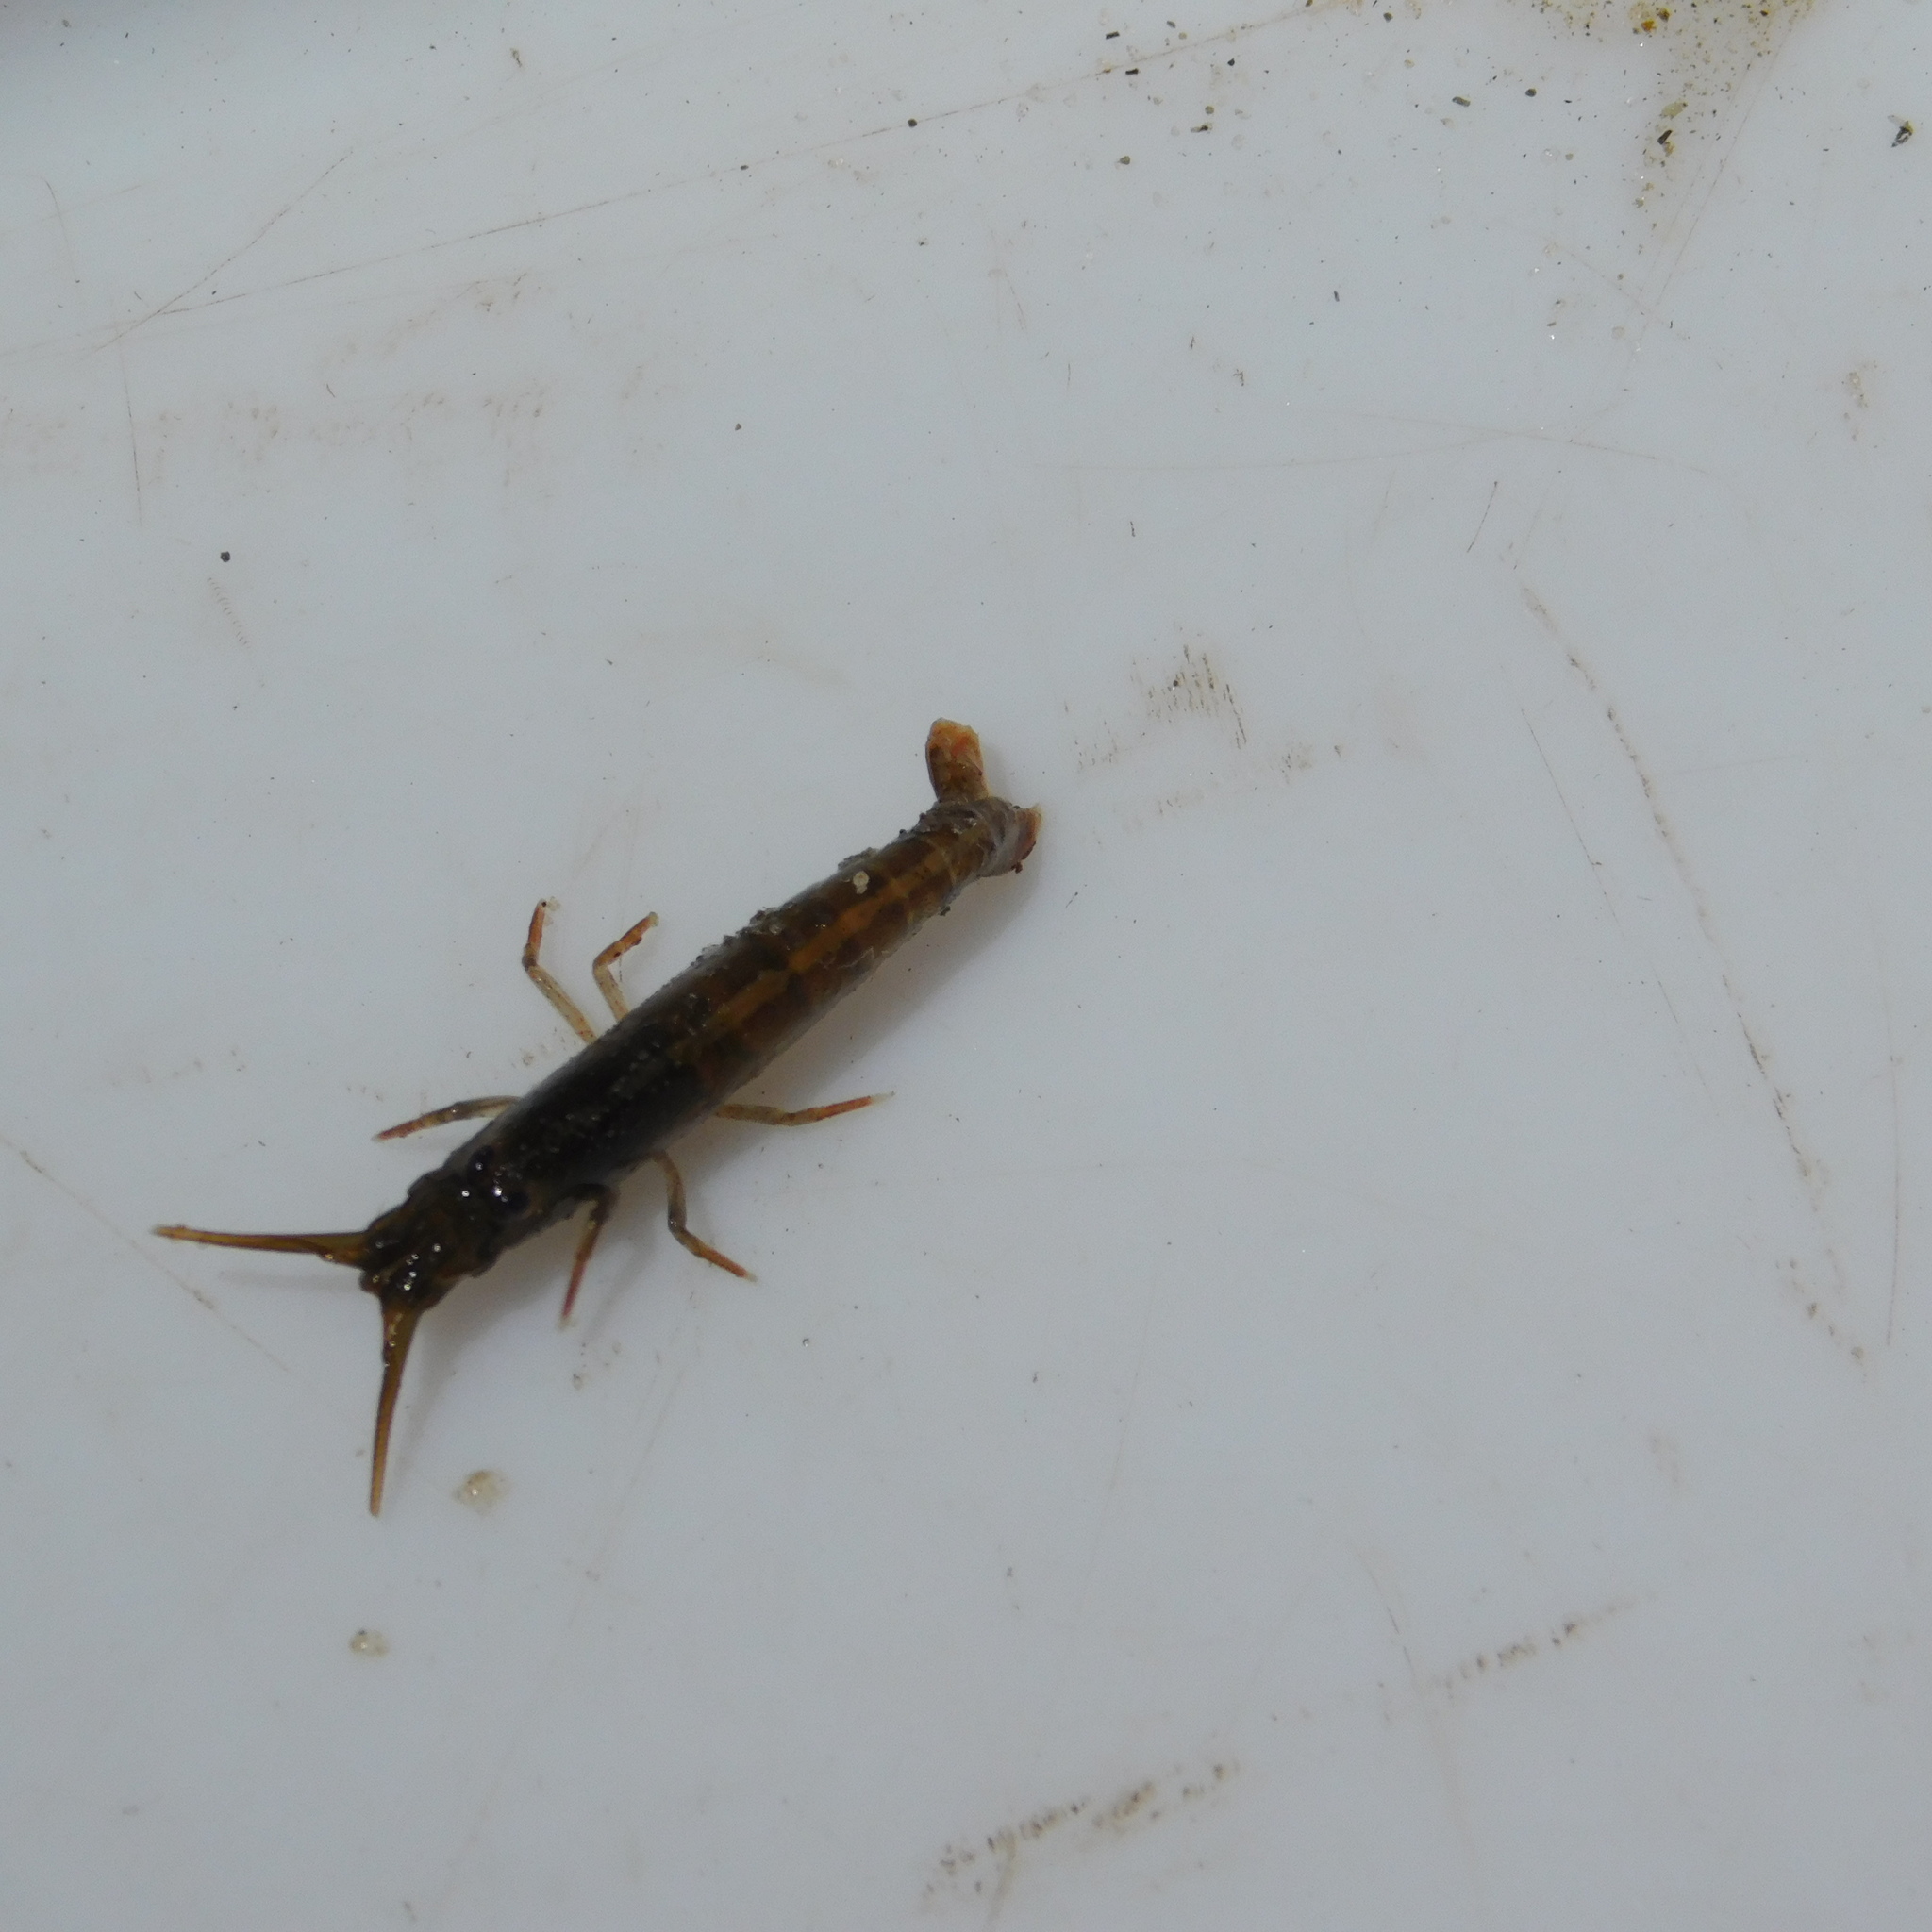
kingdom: Animalia
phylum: Arthropoda
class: Malacostraca
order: Decapoda
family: Alpheidae
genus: Betaeopsis
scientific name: Betaeopsis aequimanus
